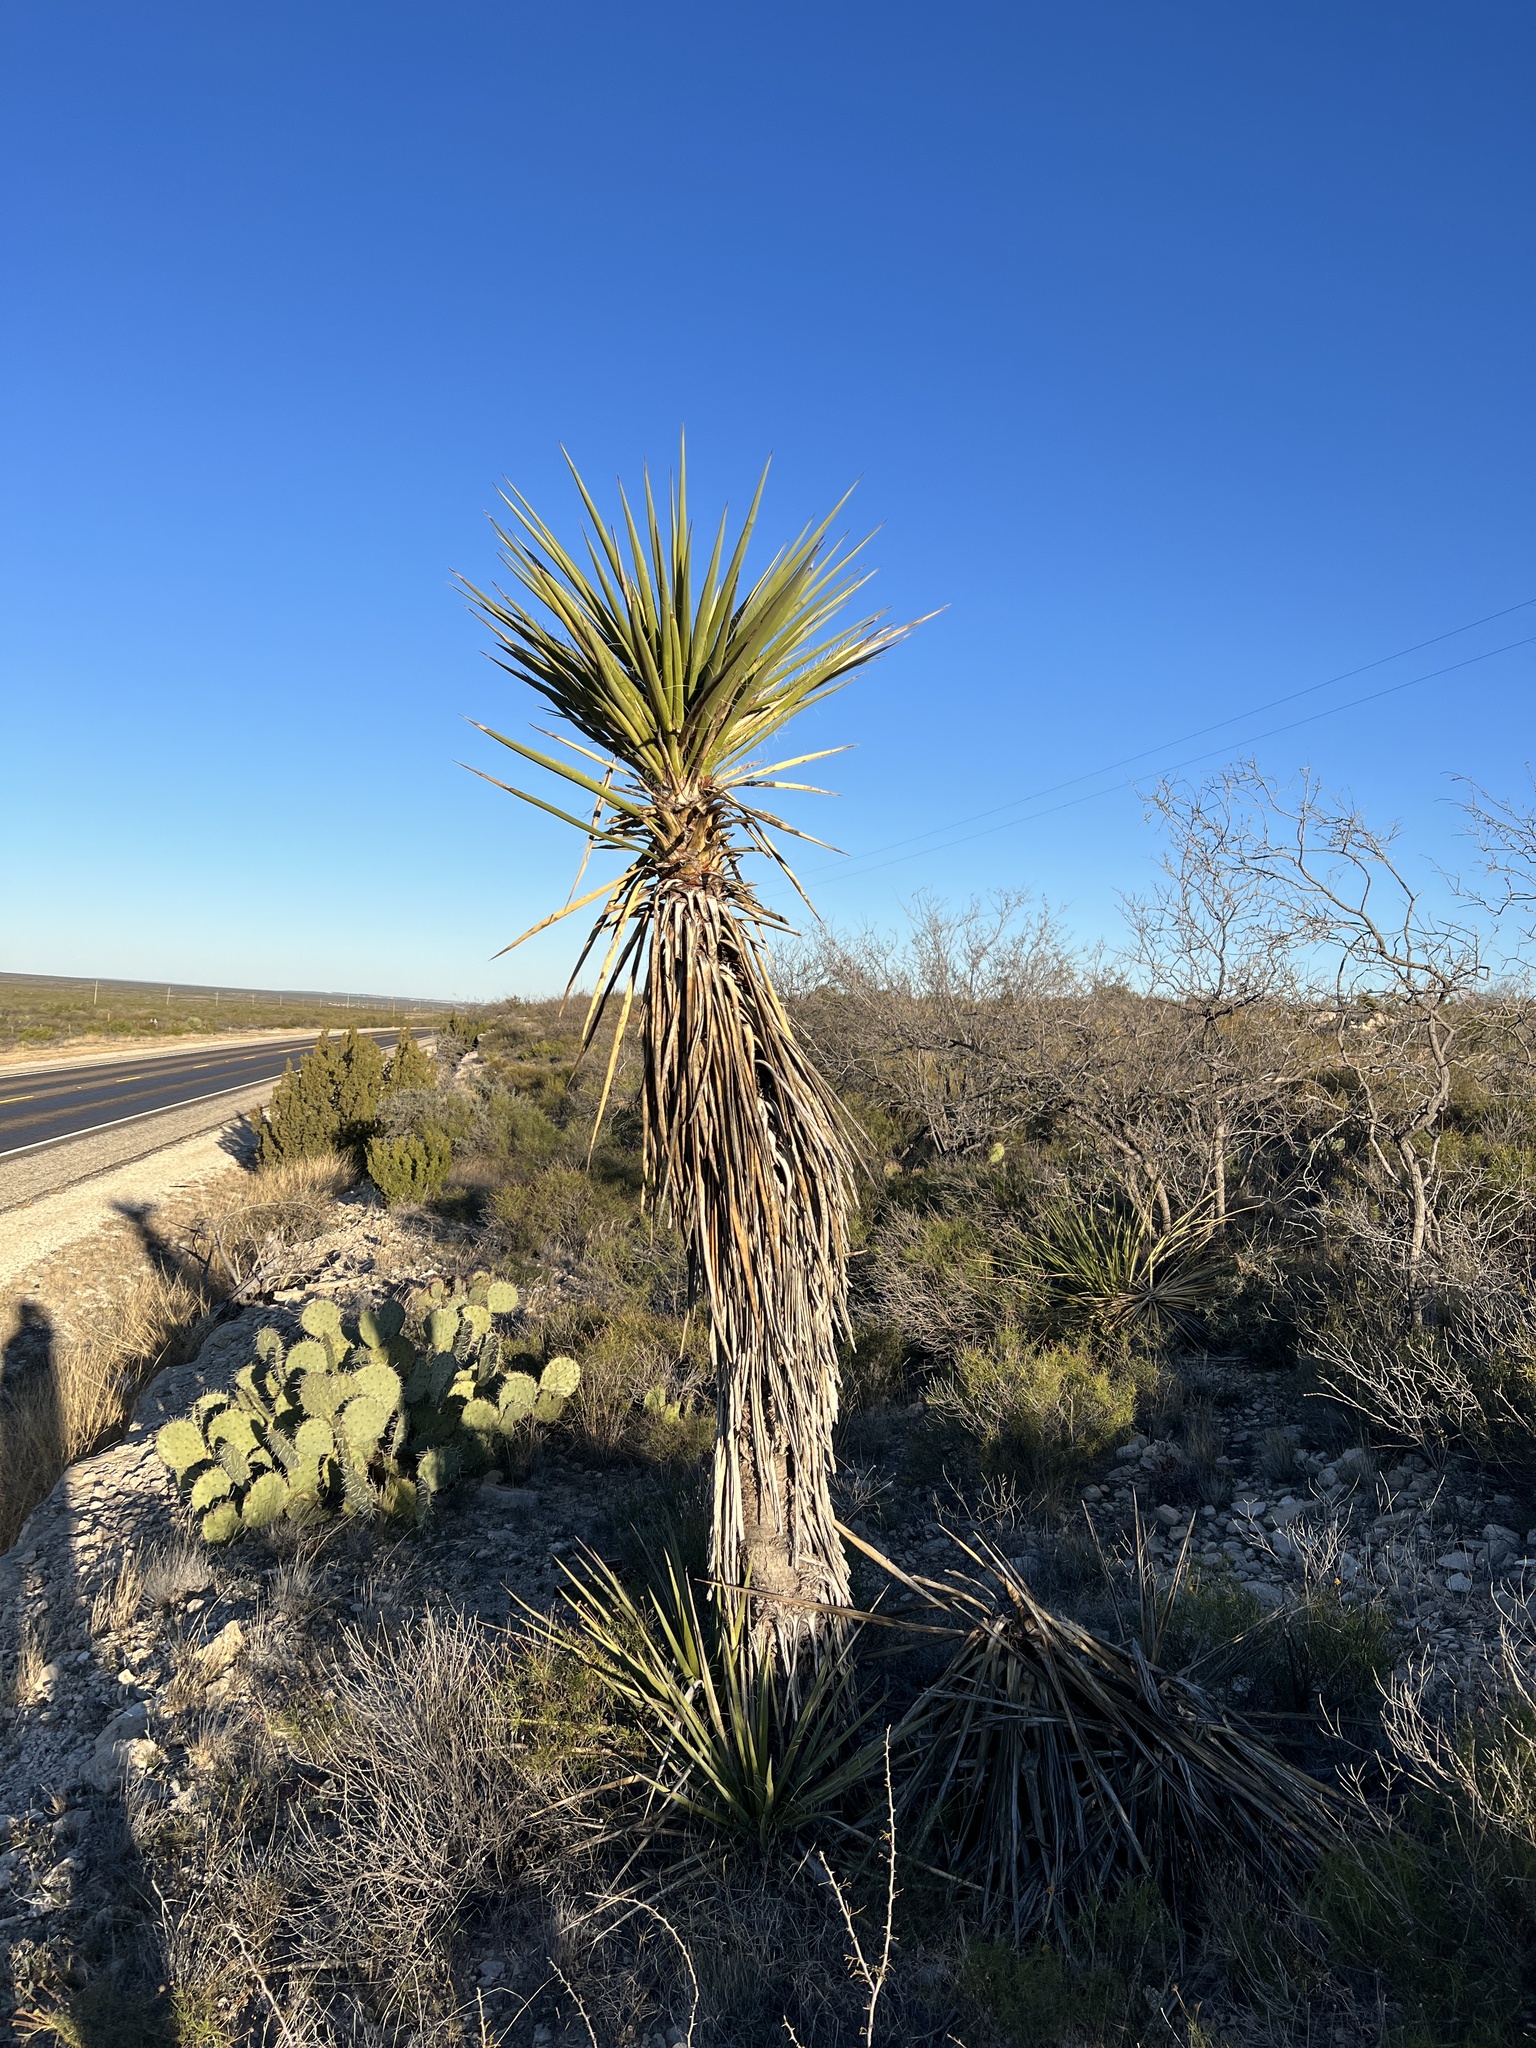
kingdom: Plantae
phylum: Tracheophyta
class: Liliopsida
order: Asparagales
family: Asparagaceae
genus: Yucca
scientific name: Yucca treculiana
